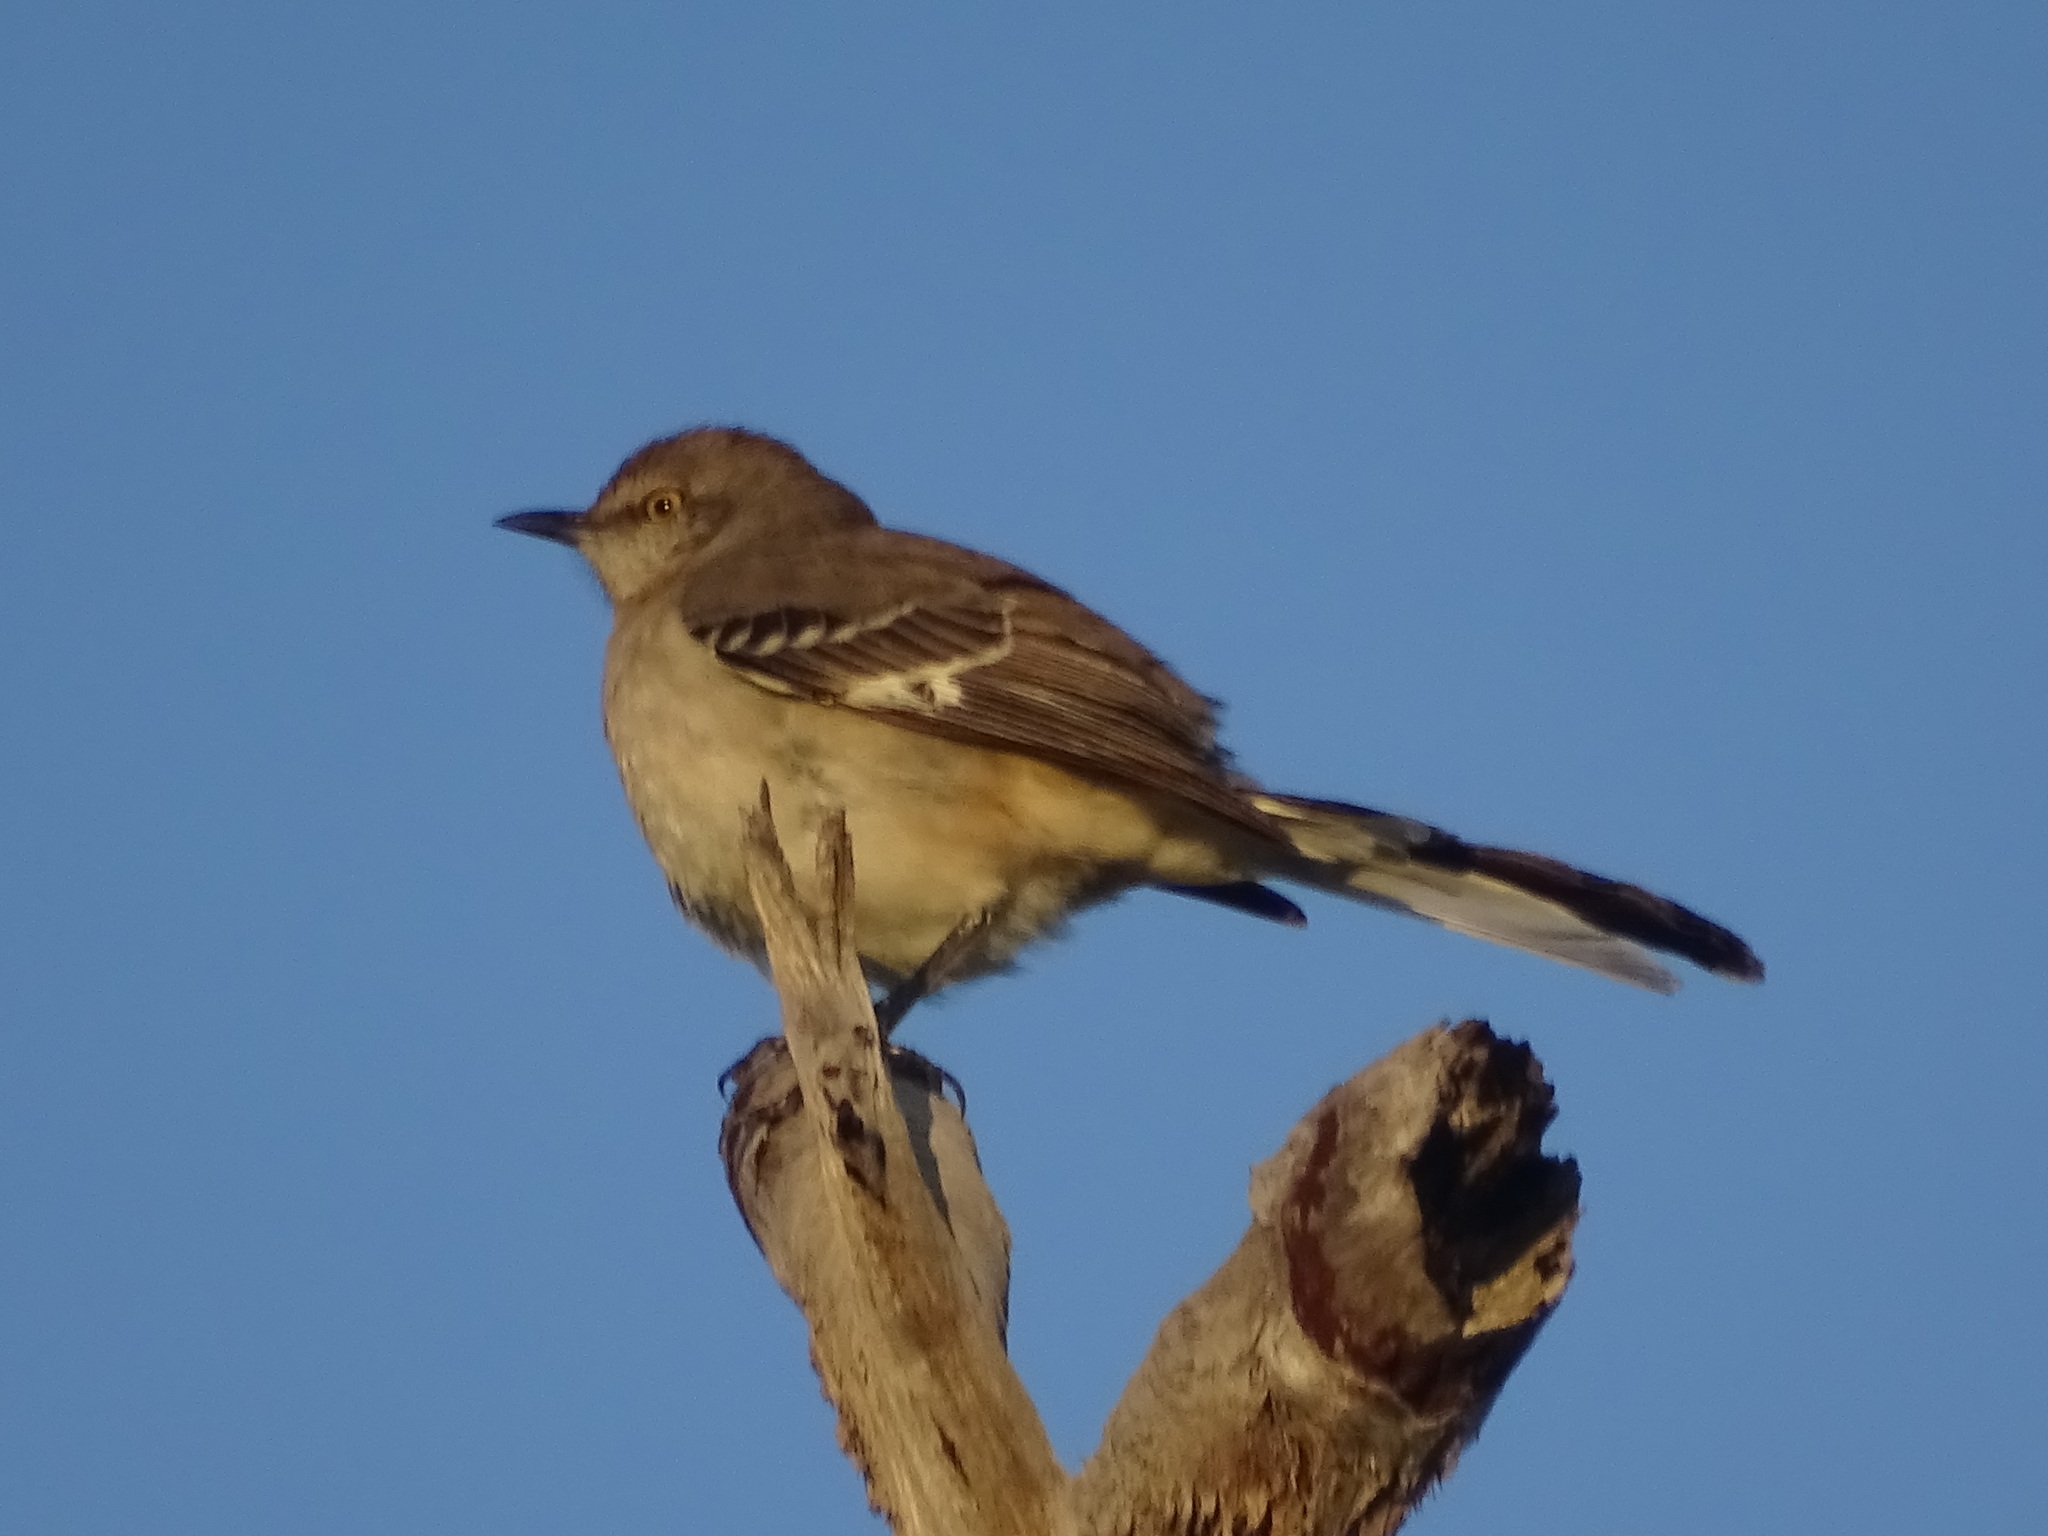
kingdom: Animalia
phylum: Chordata
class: Aves
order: Passeriformes
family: Mimidae
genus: Mimus
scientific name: Mimus polyglottos
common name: Northern mockingbird
